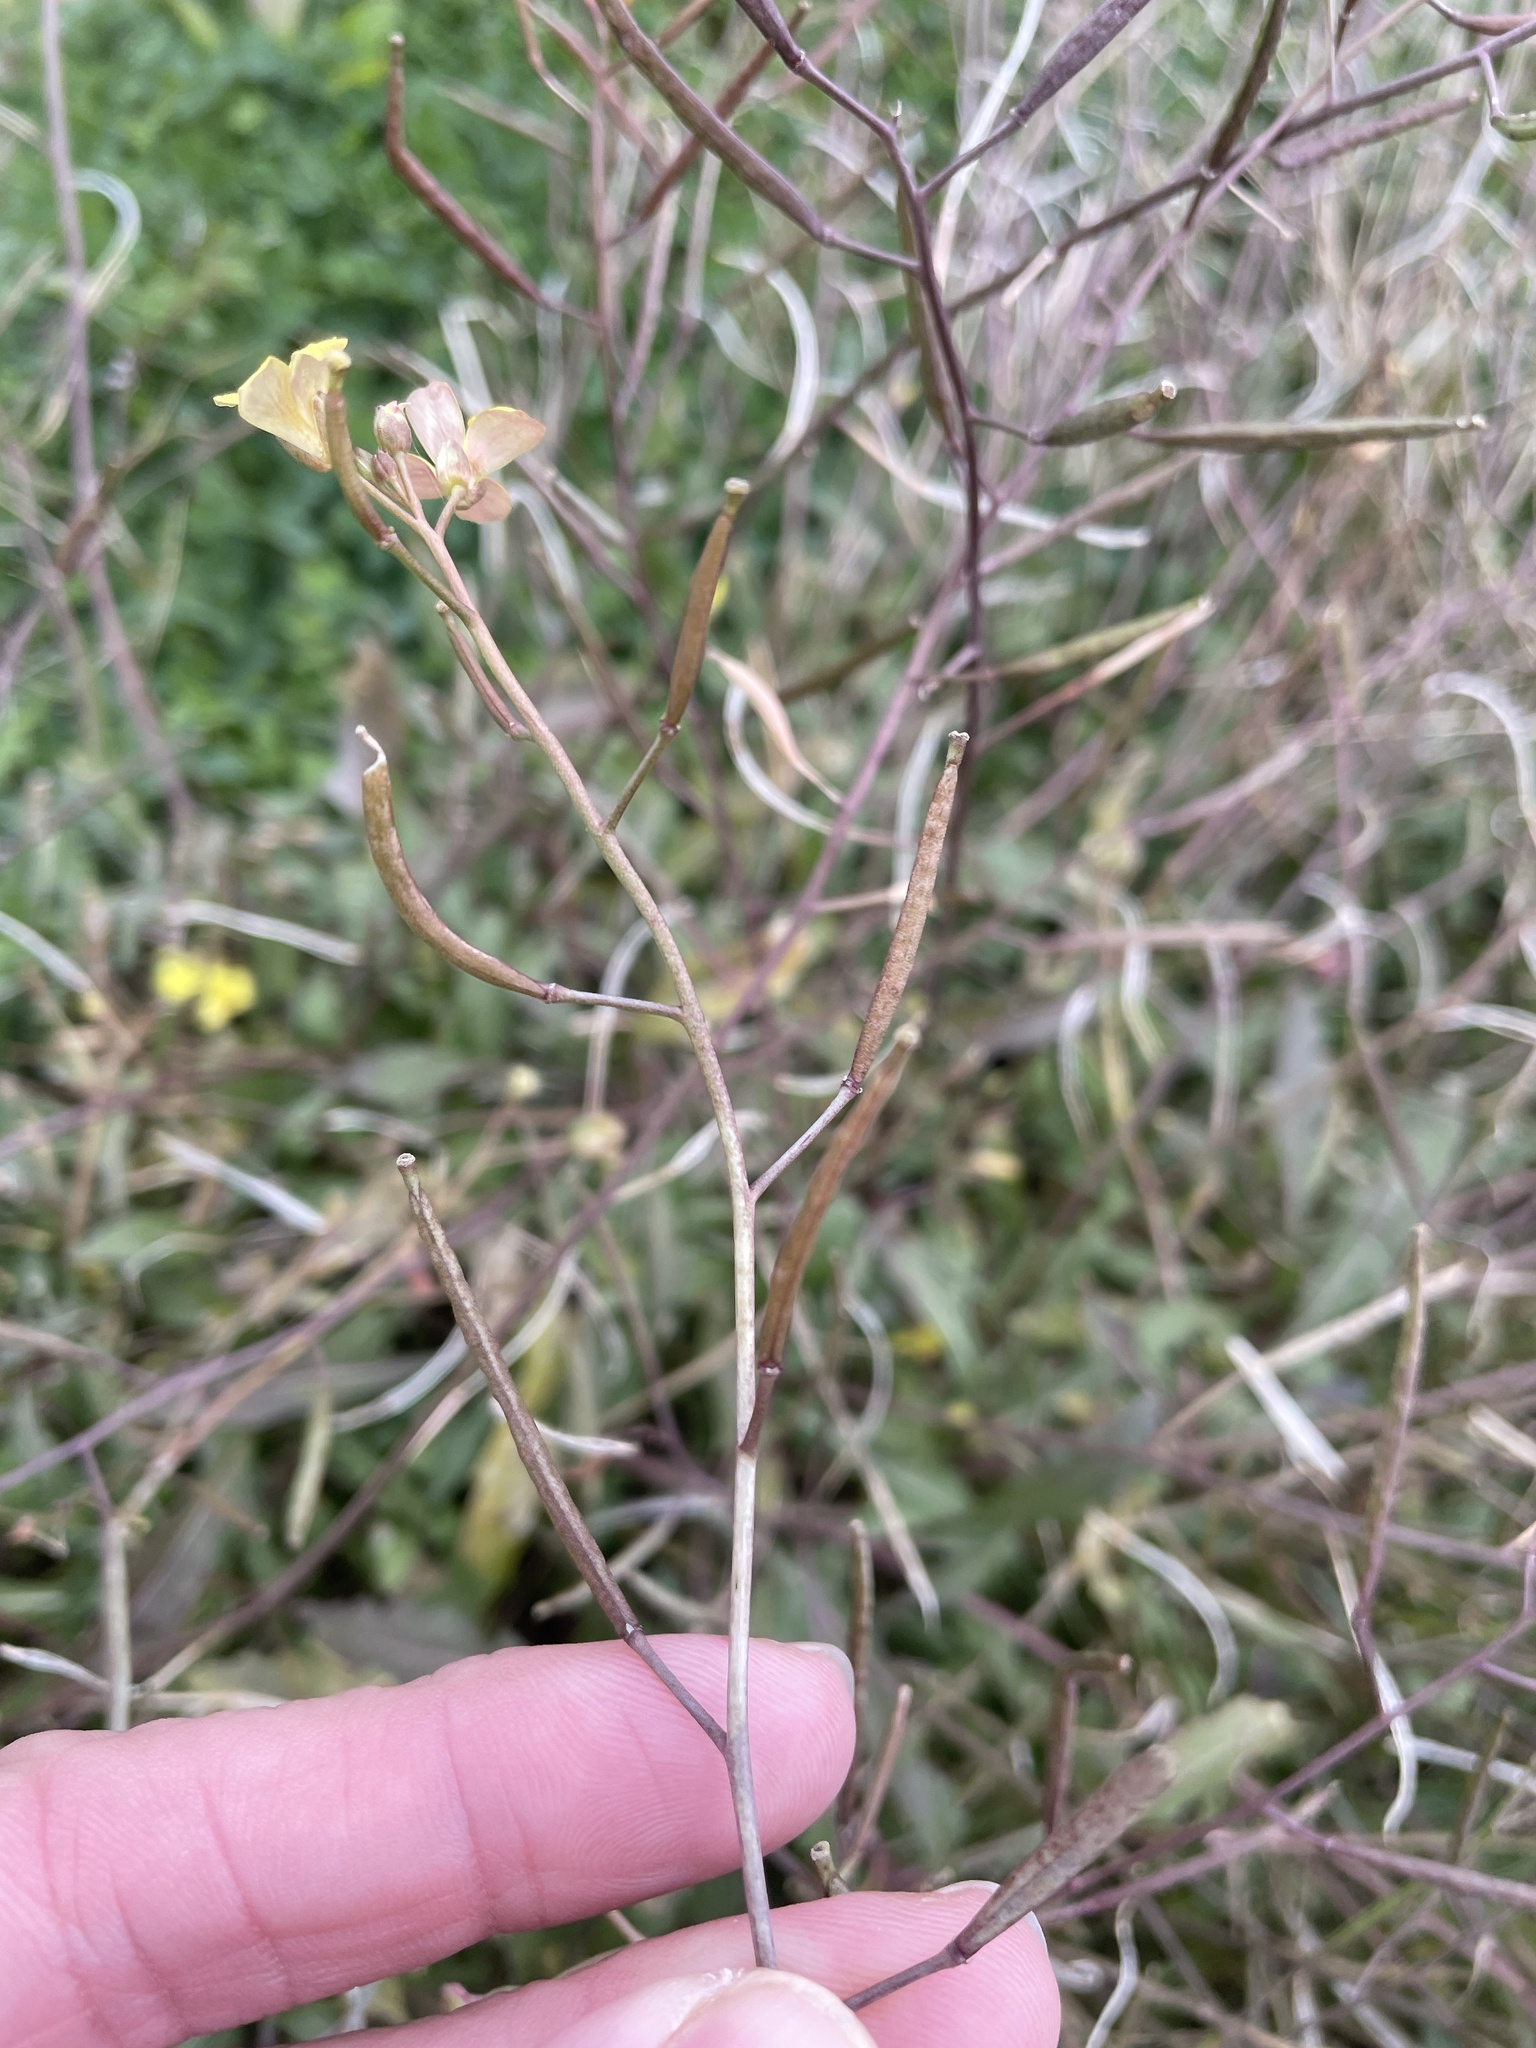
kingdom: Plantae
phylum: Tracheophyta
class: Magnoliopsida
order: Brassicales
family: Brassicaceae
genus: Diplotaxis
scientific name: Diplotaxis muralis
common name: Annual wall-rocket
